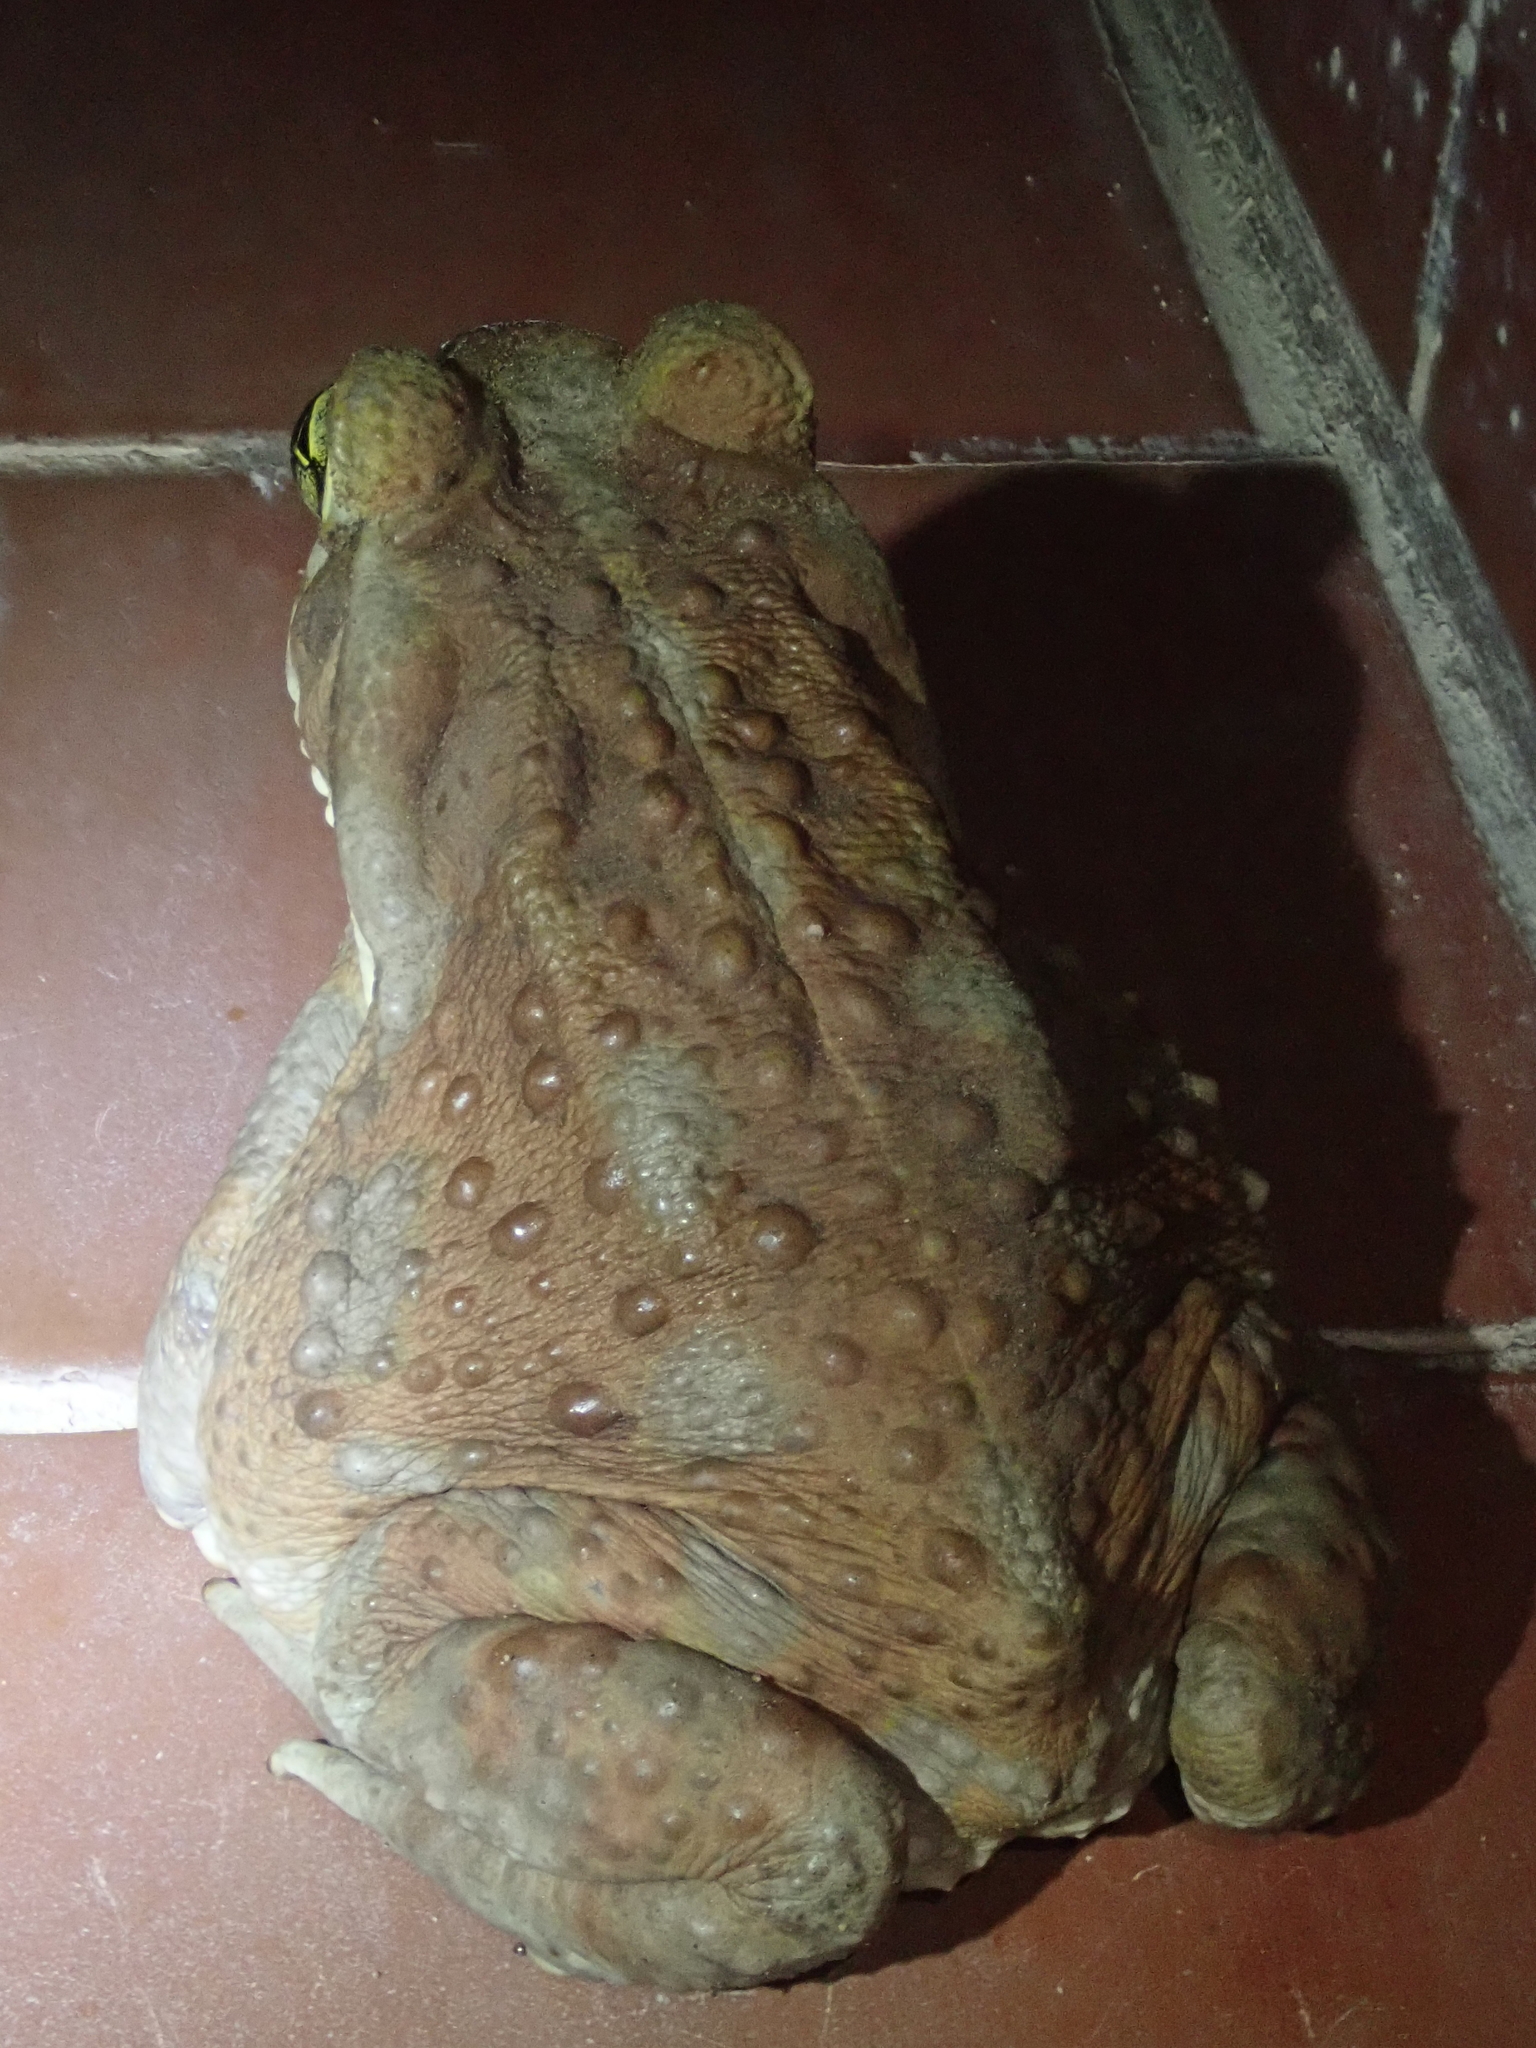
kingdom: Animalia
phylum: Chordata
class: Amphibia
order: Anura
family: Bufonidae
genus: Rhinella
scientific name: Rhinella arenarum
